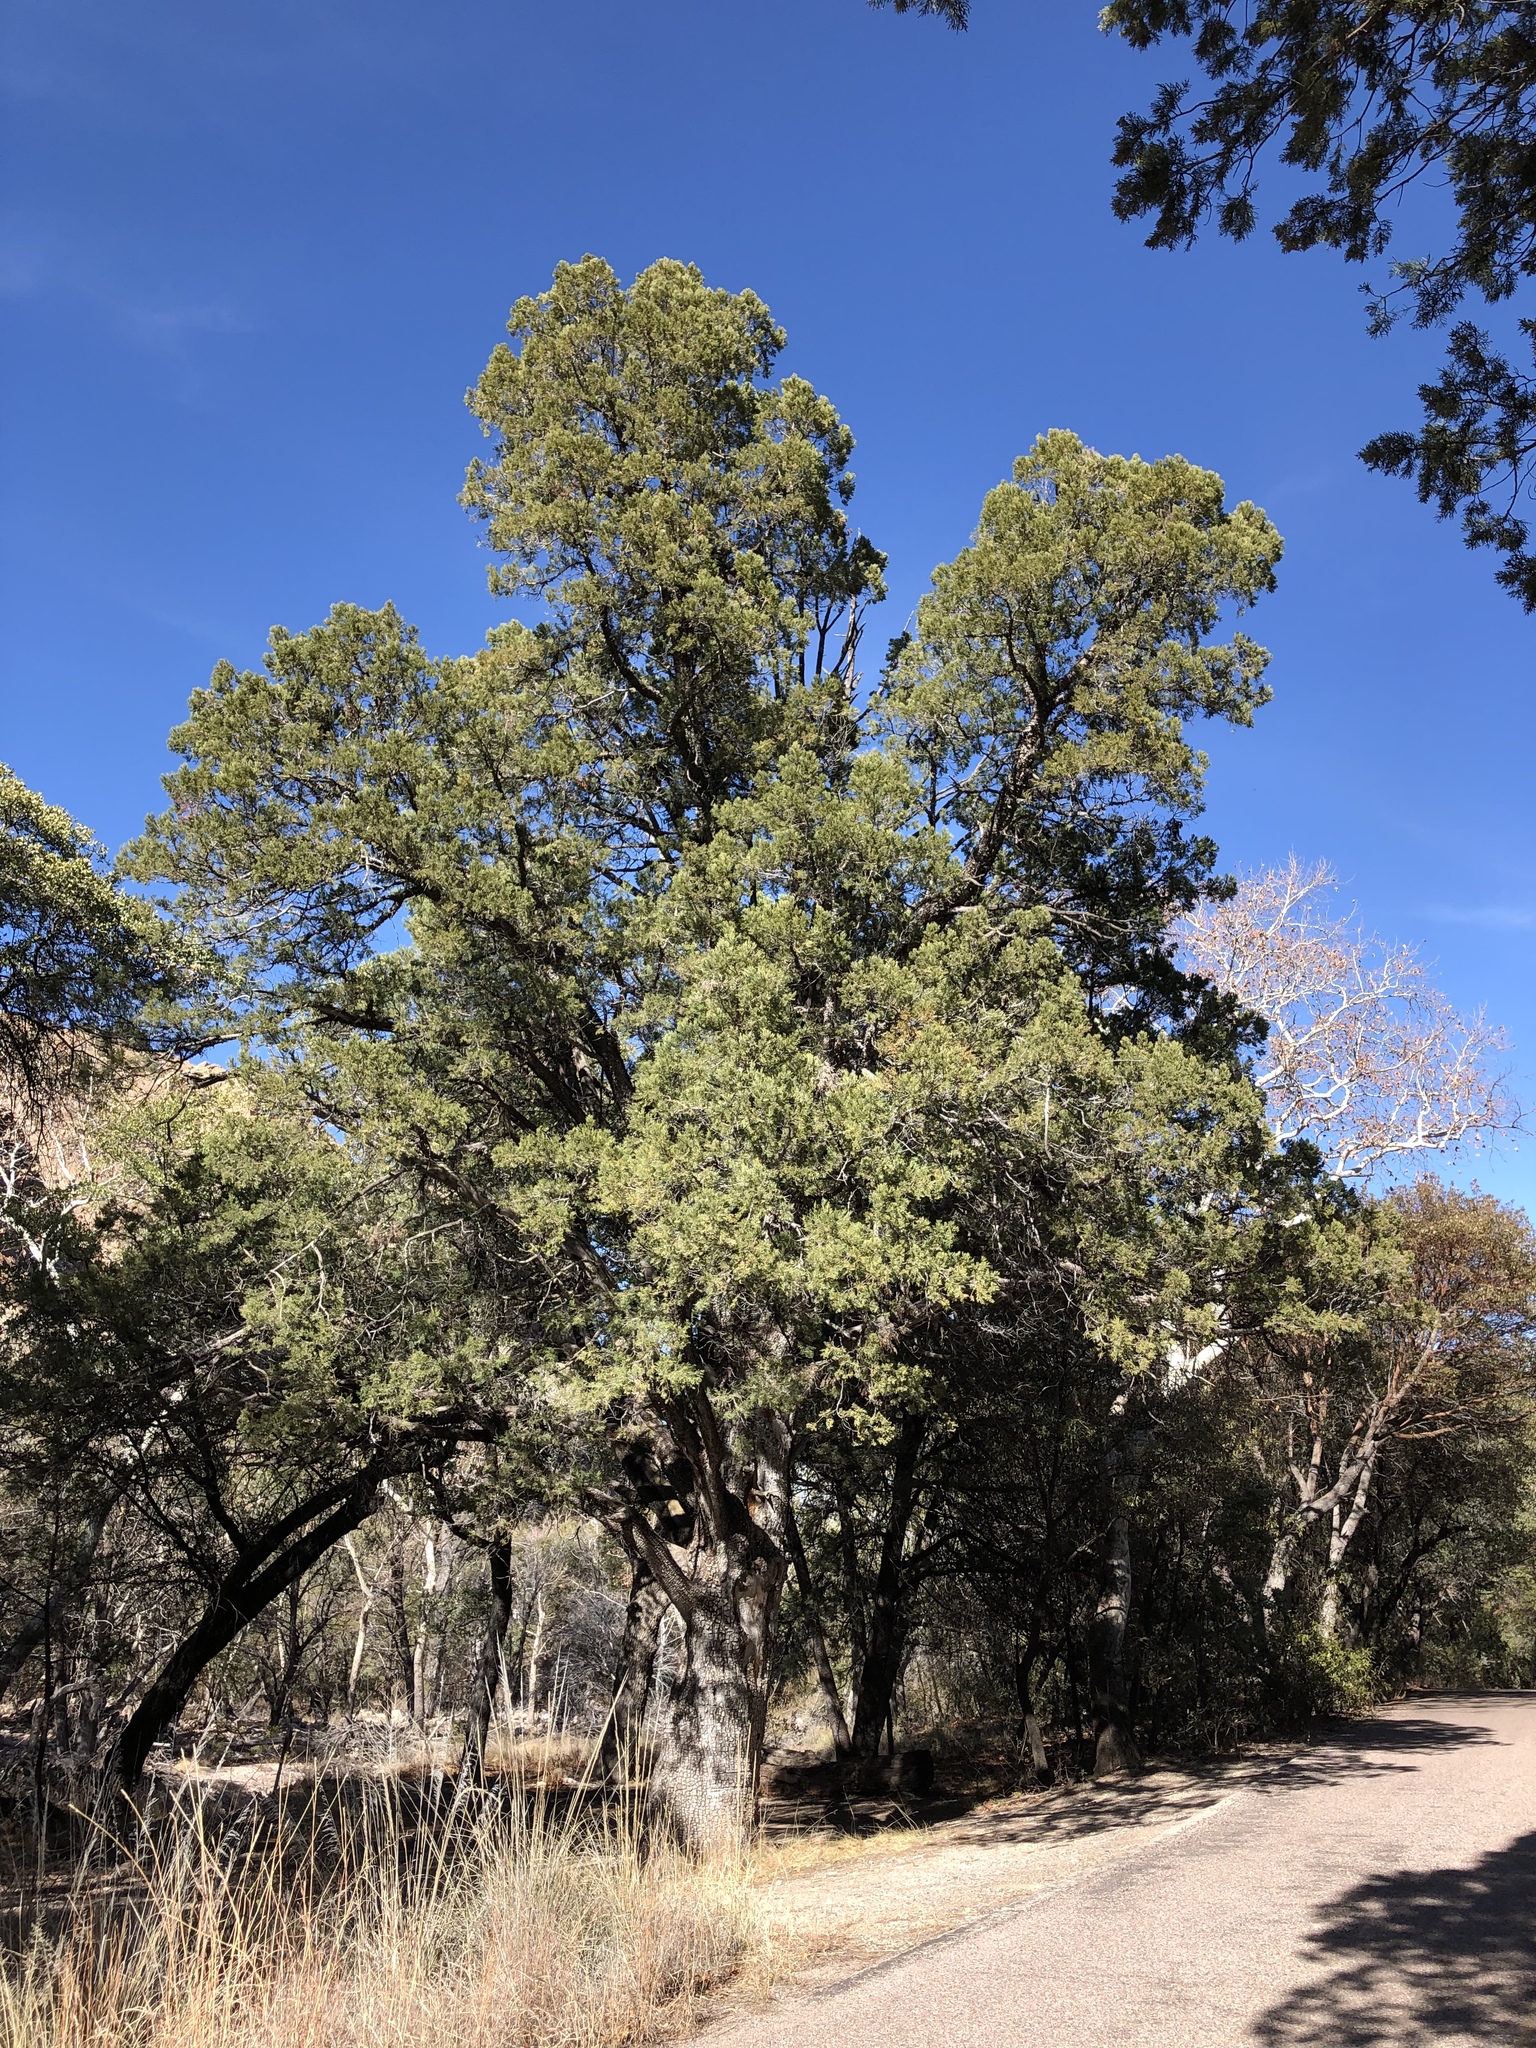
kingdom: Plantae
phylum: Tracheophyta
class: Pinopsida
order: Pinales
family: Cupressaceae
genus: Juniperus
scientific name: Juniperus deppeana
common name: Alligator juniper
